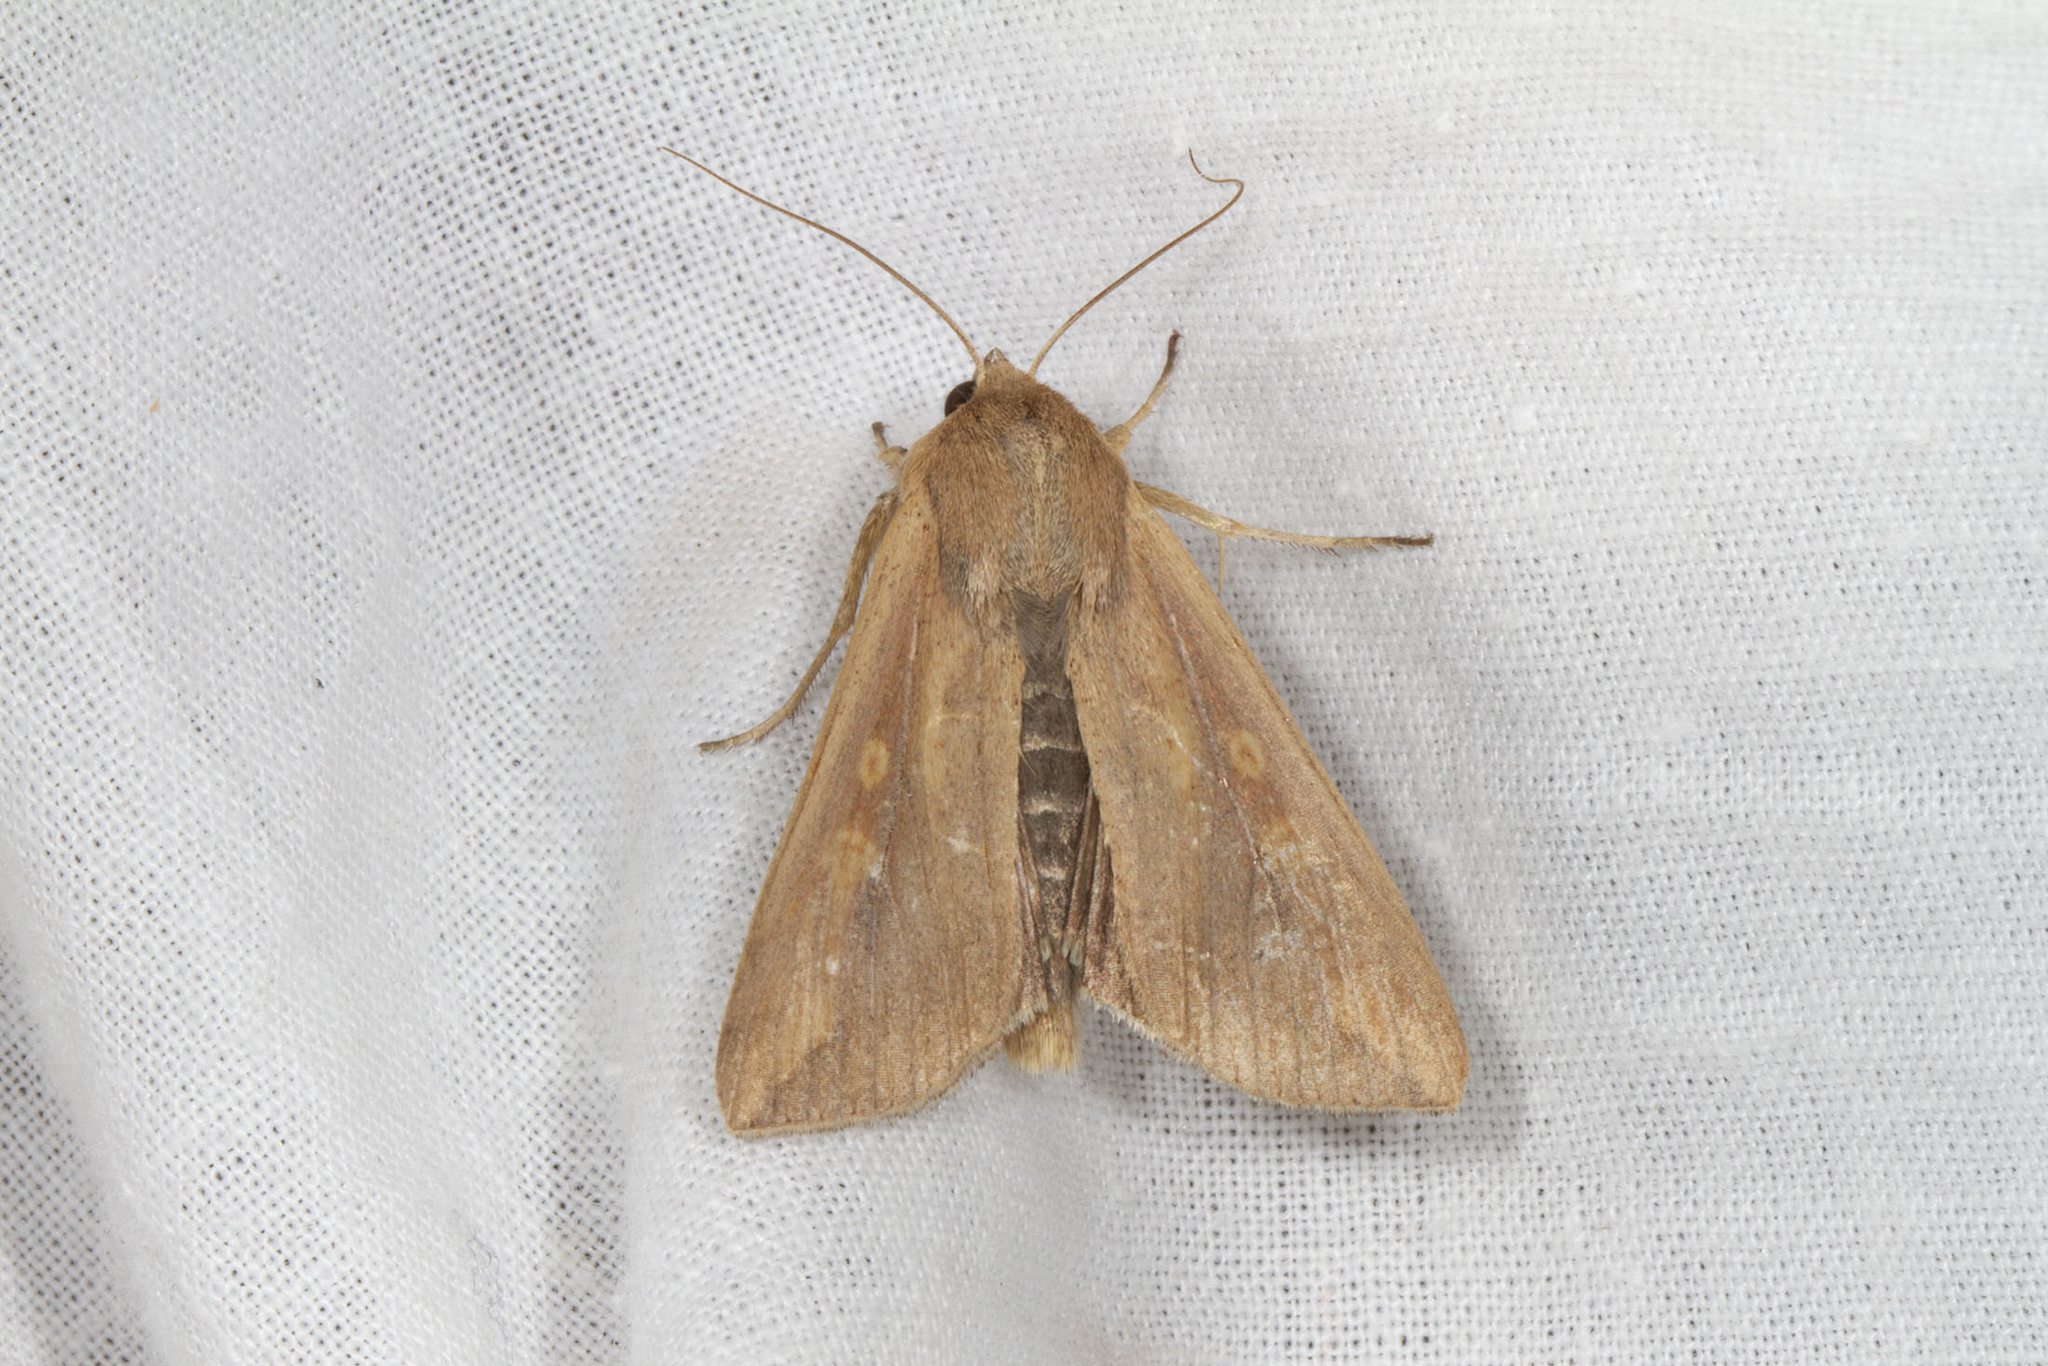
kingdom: Animalia
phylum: Arthropoda
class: Insecta
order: Lepidoptera
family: Noctuidae
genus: Mythimna
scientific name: Mythimna unipuncta
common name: White-speck
